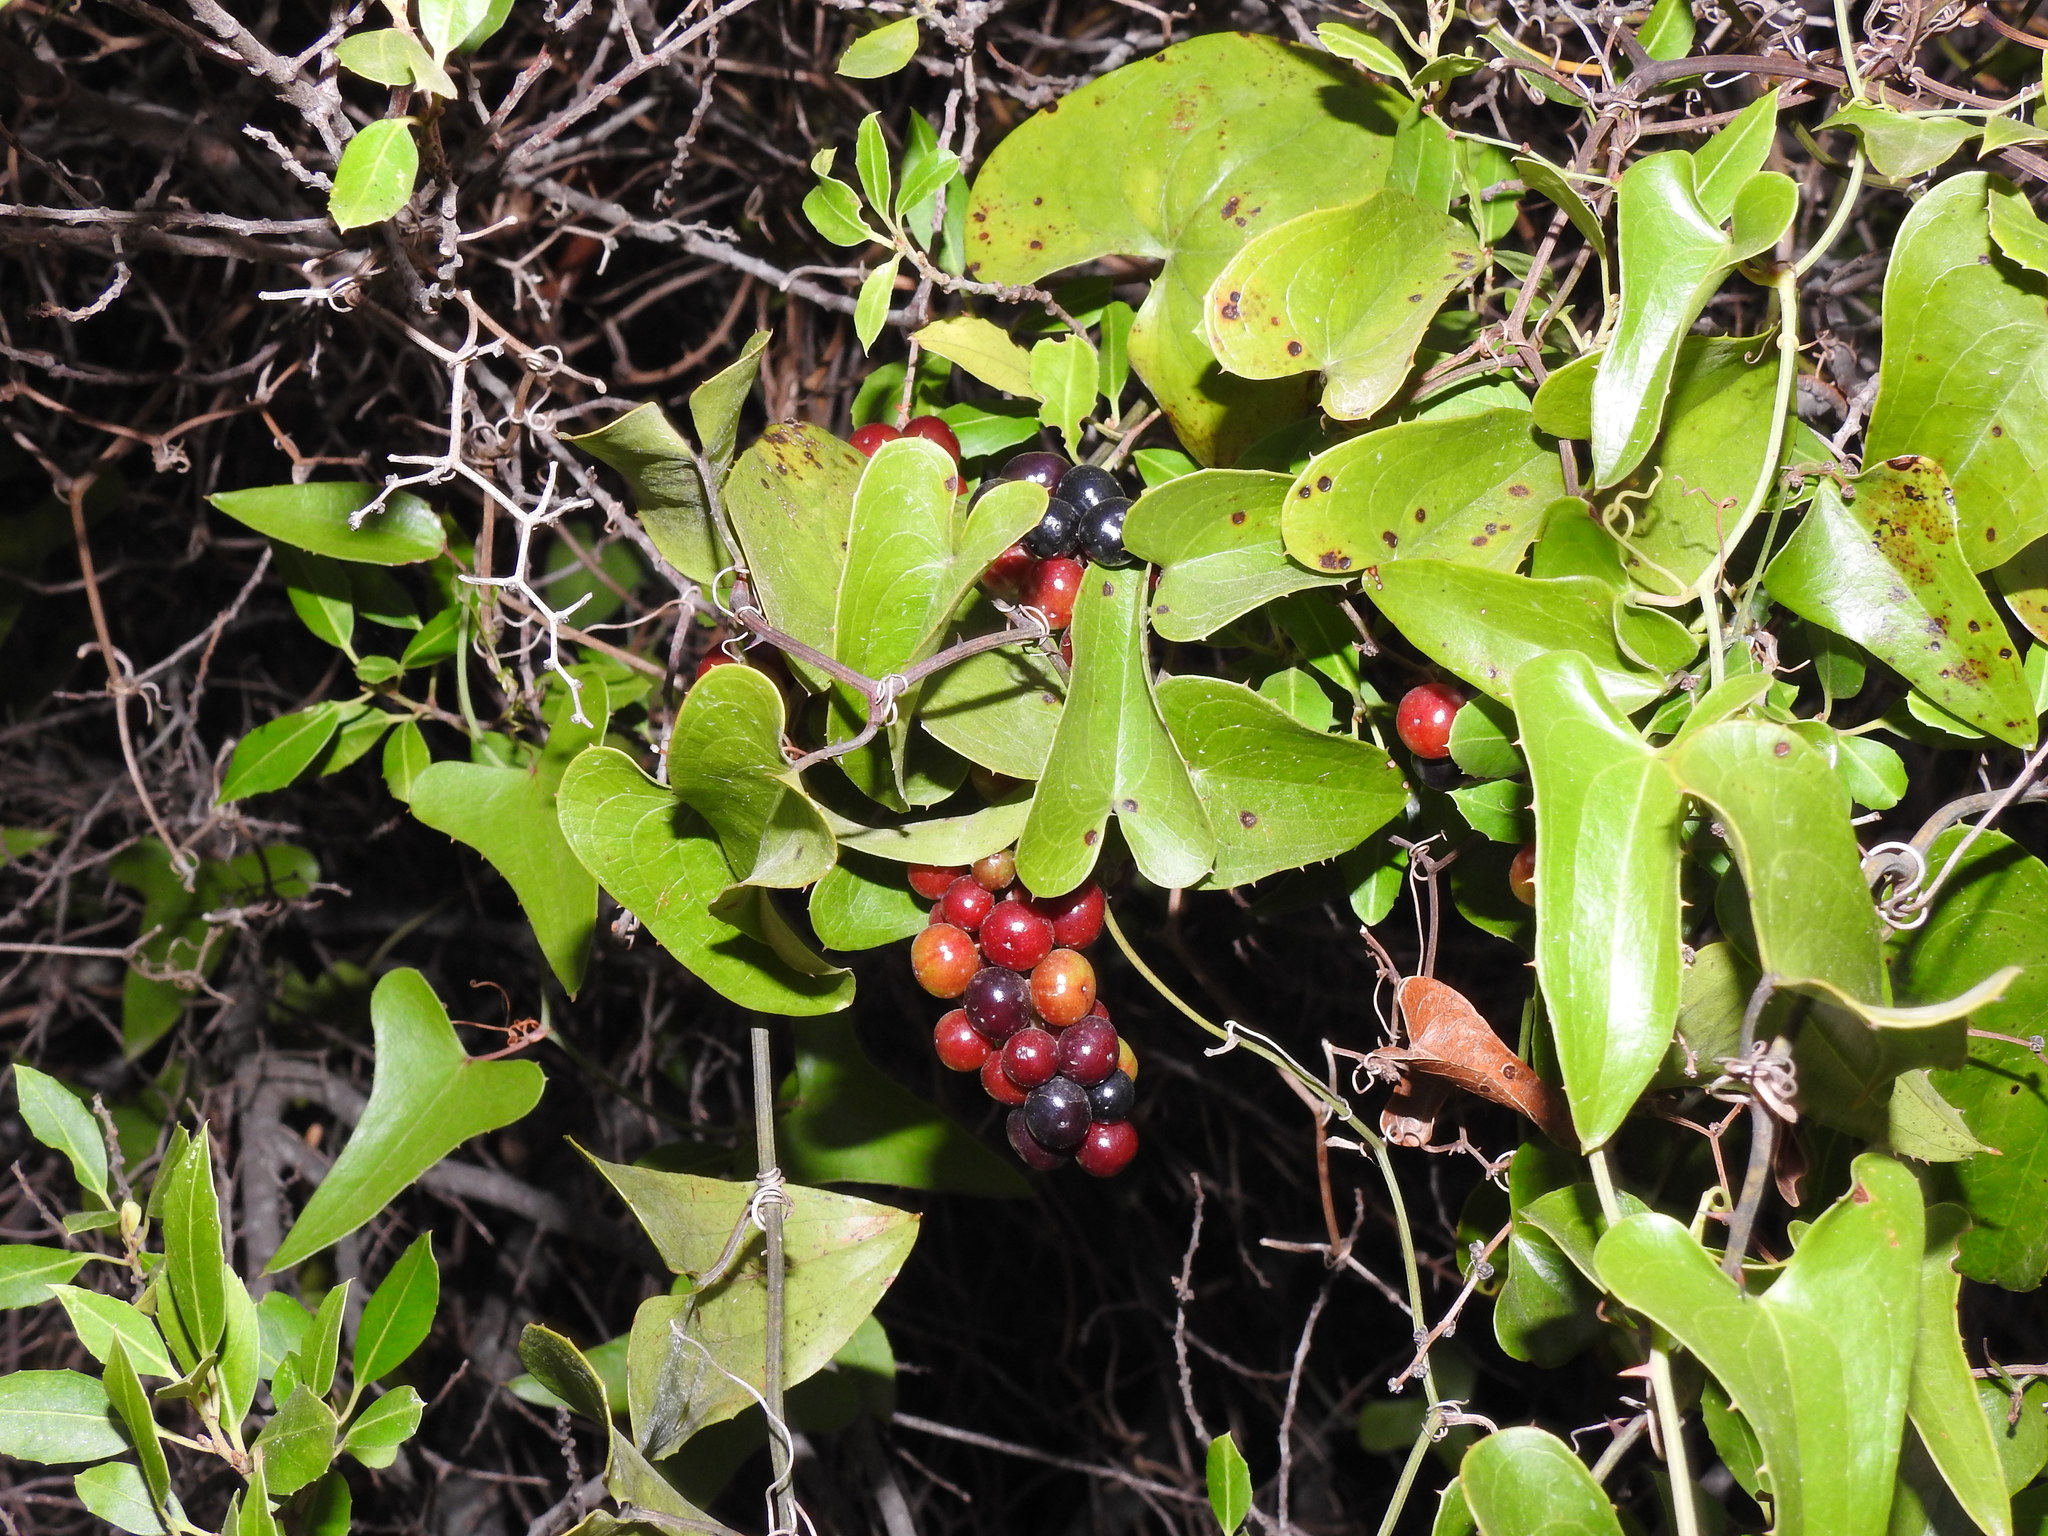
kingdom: Plantae
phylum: Tracheophyta
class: Liliopsida
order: Liliales
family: Smilacaceae
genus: Smilax
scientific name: Smilax aspera
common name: Common smilax
